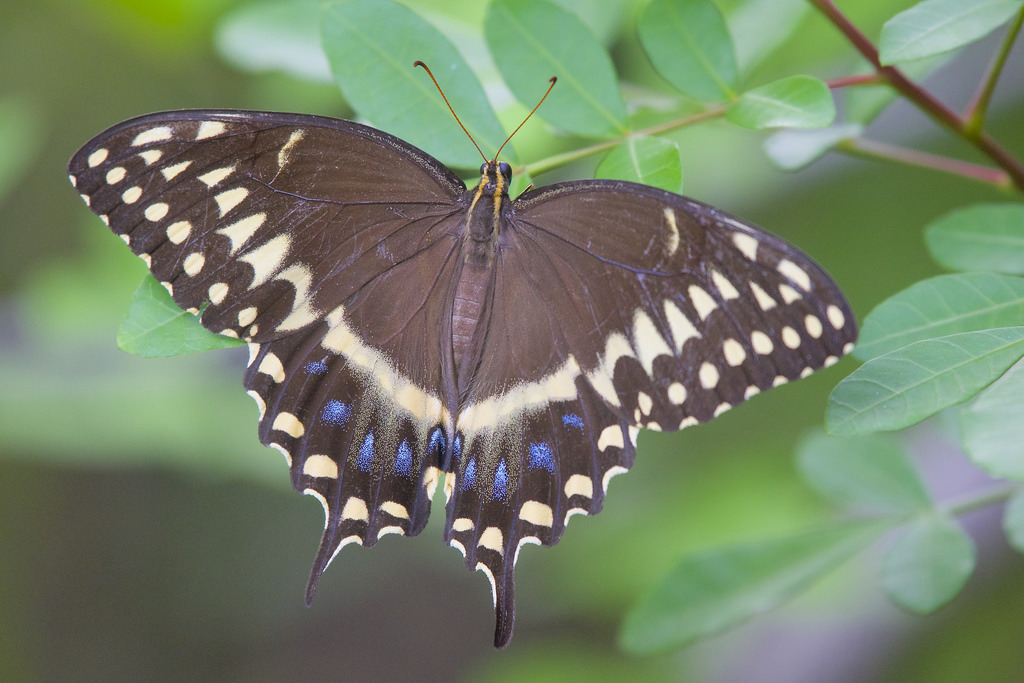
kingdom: Animalia
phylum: Arthropoda
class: Insecta
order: Lepidoptera
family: Papilionidae
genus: Papilio
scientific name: Papilio palamedes
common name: Palamedes swallowtail
